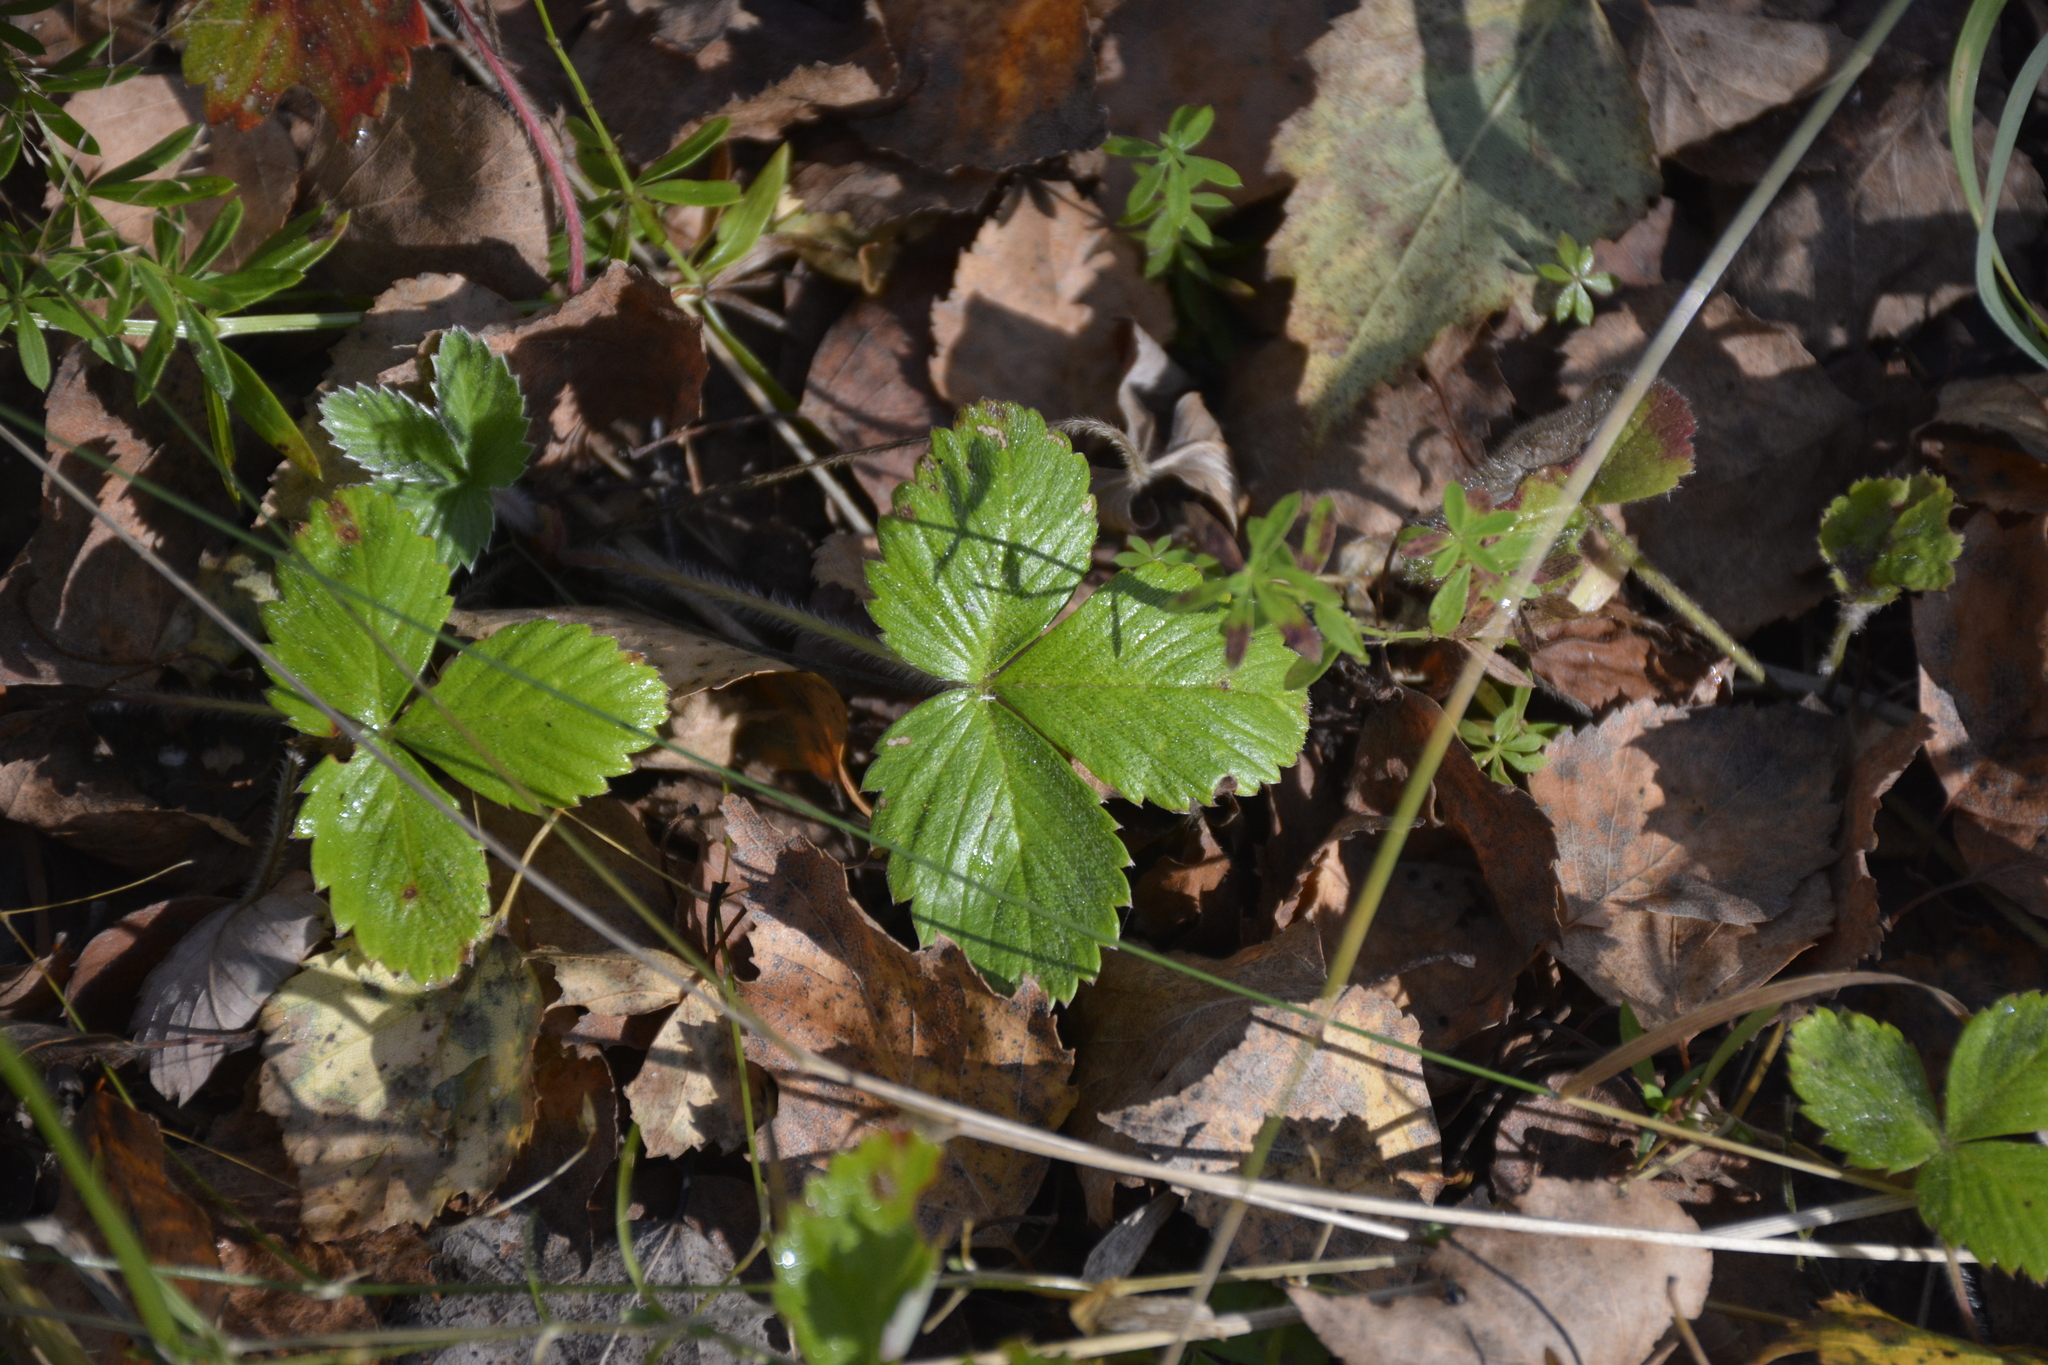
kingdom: Plantae
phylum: Tracheophyta
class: Magnoliopsida
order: Rosales
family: Rosaceae
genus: Fragaria
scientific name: Fragaria vesca
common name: Wild strawberry
